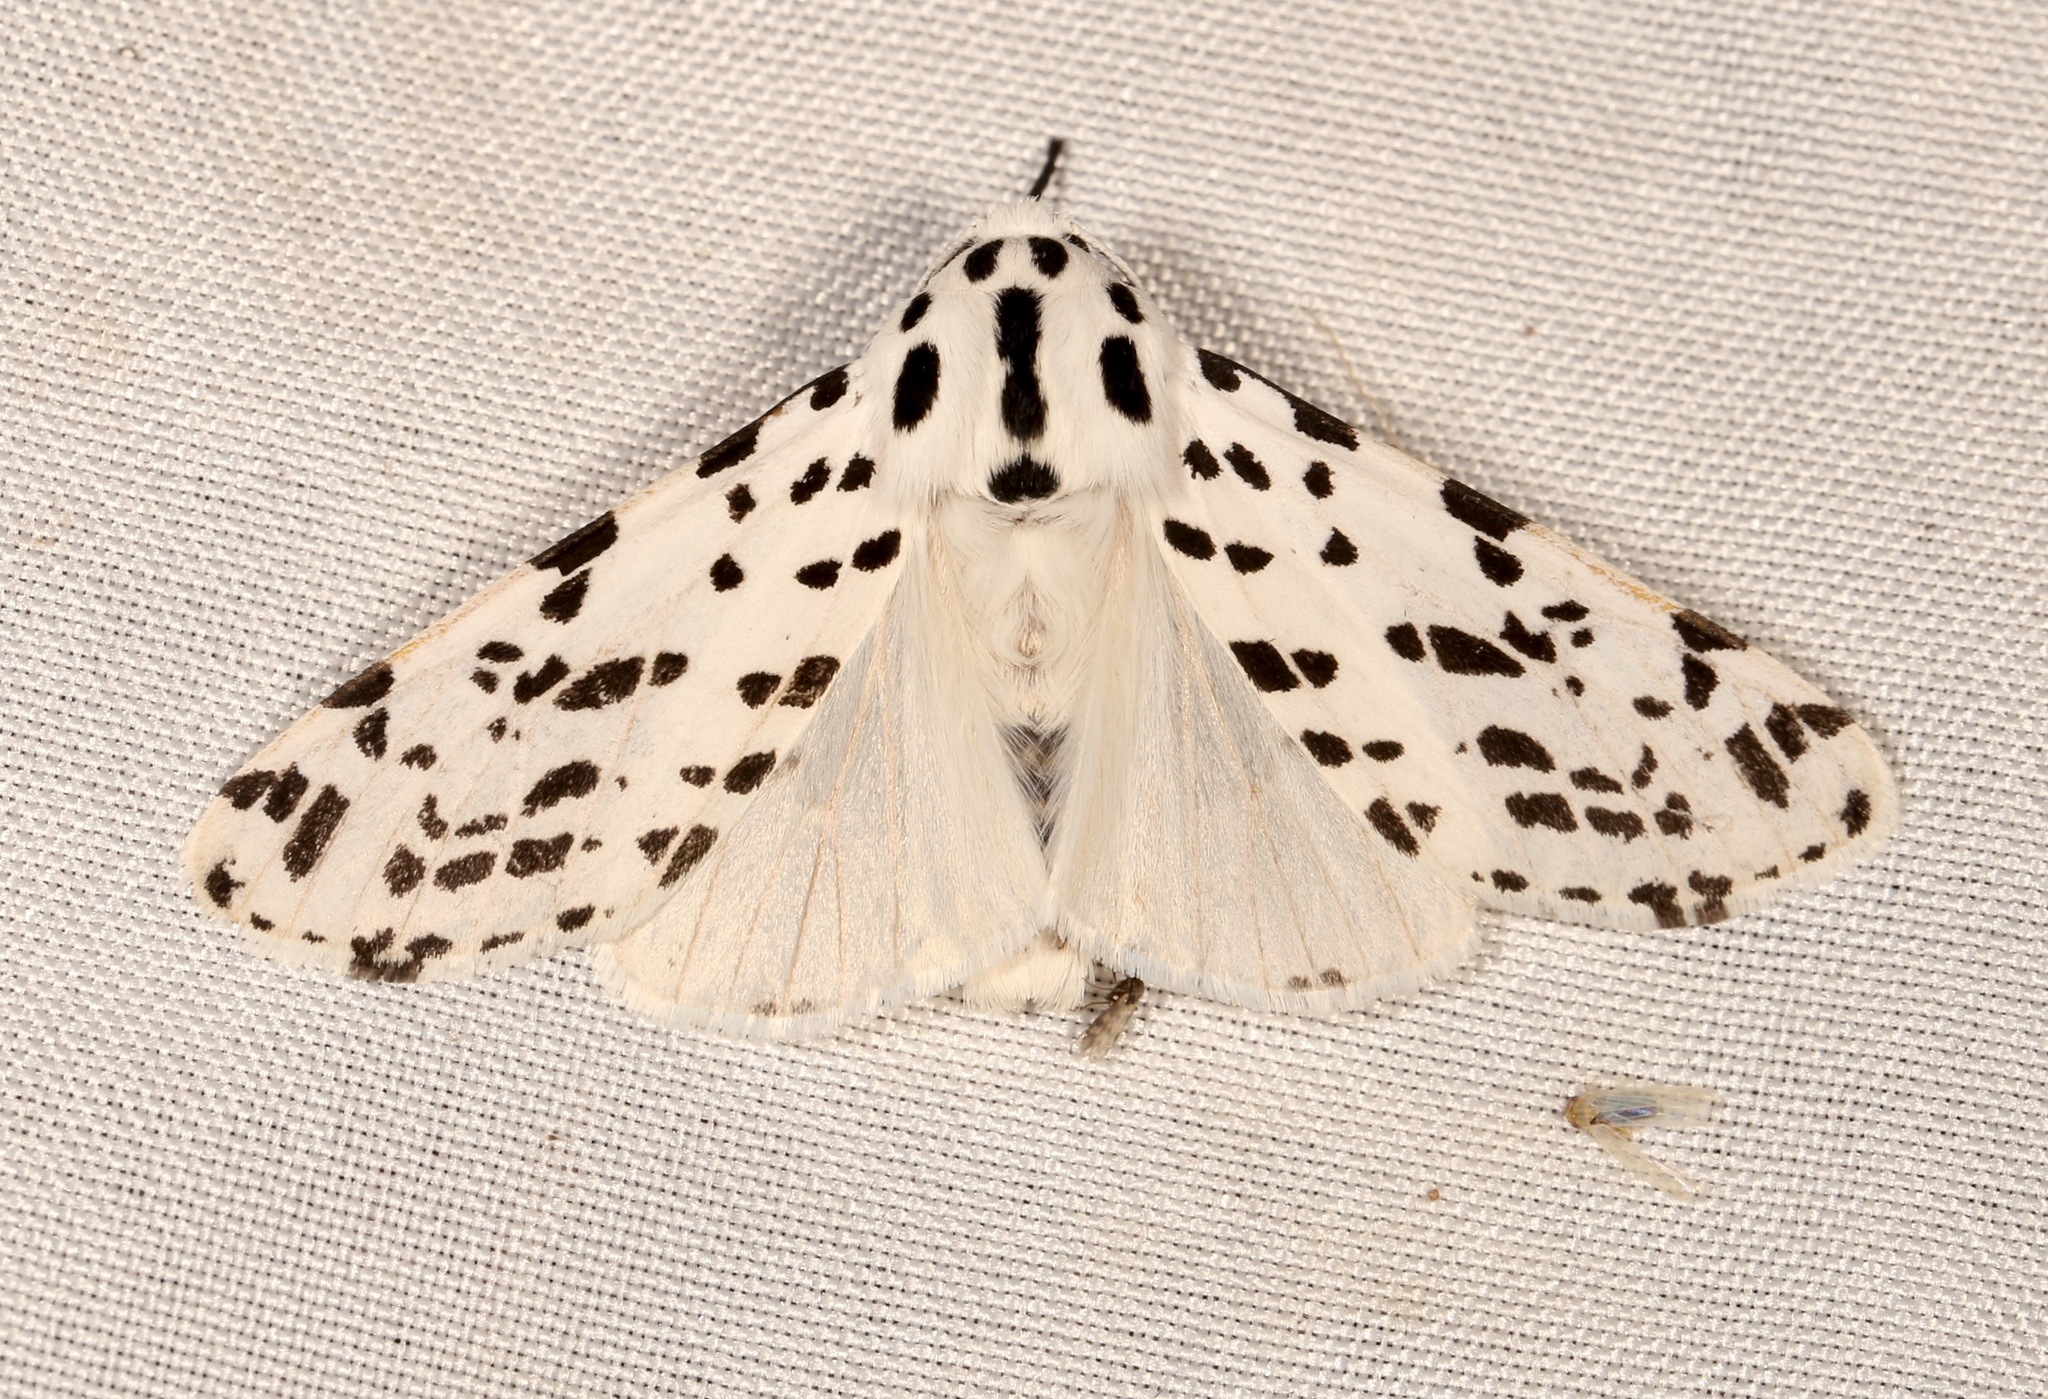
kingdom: Animalia
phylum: Arthropoda
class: Insecta
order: Lepidoptera
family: Erebidae
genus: Hypercompe
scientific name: Hypercompe permaculata
